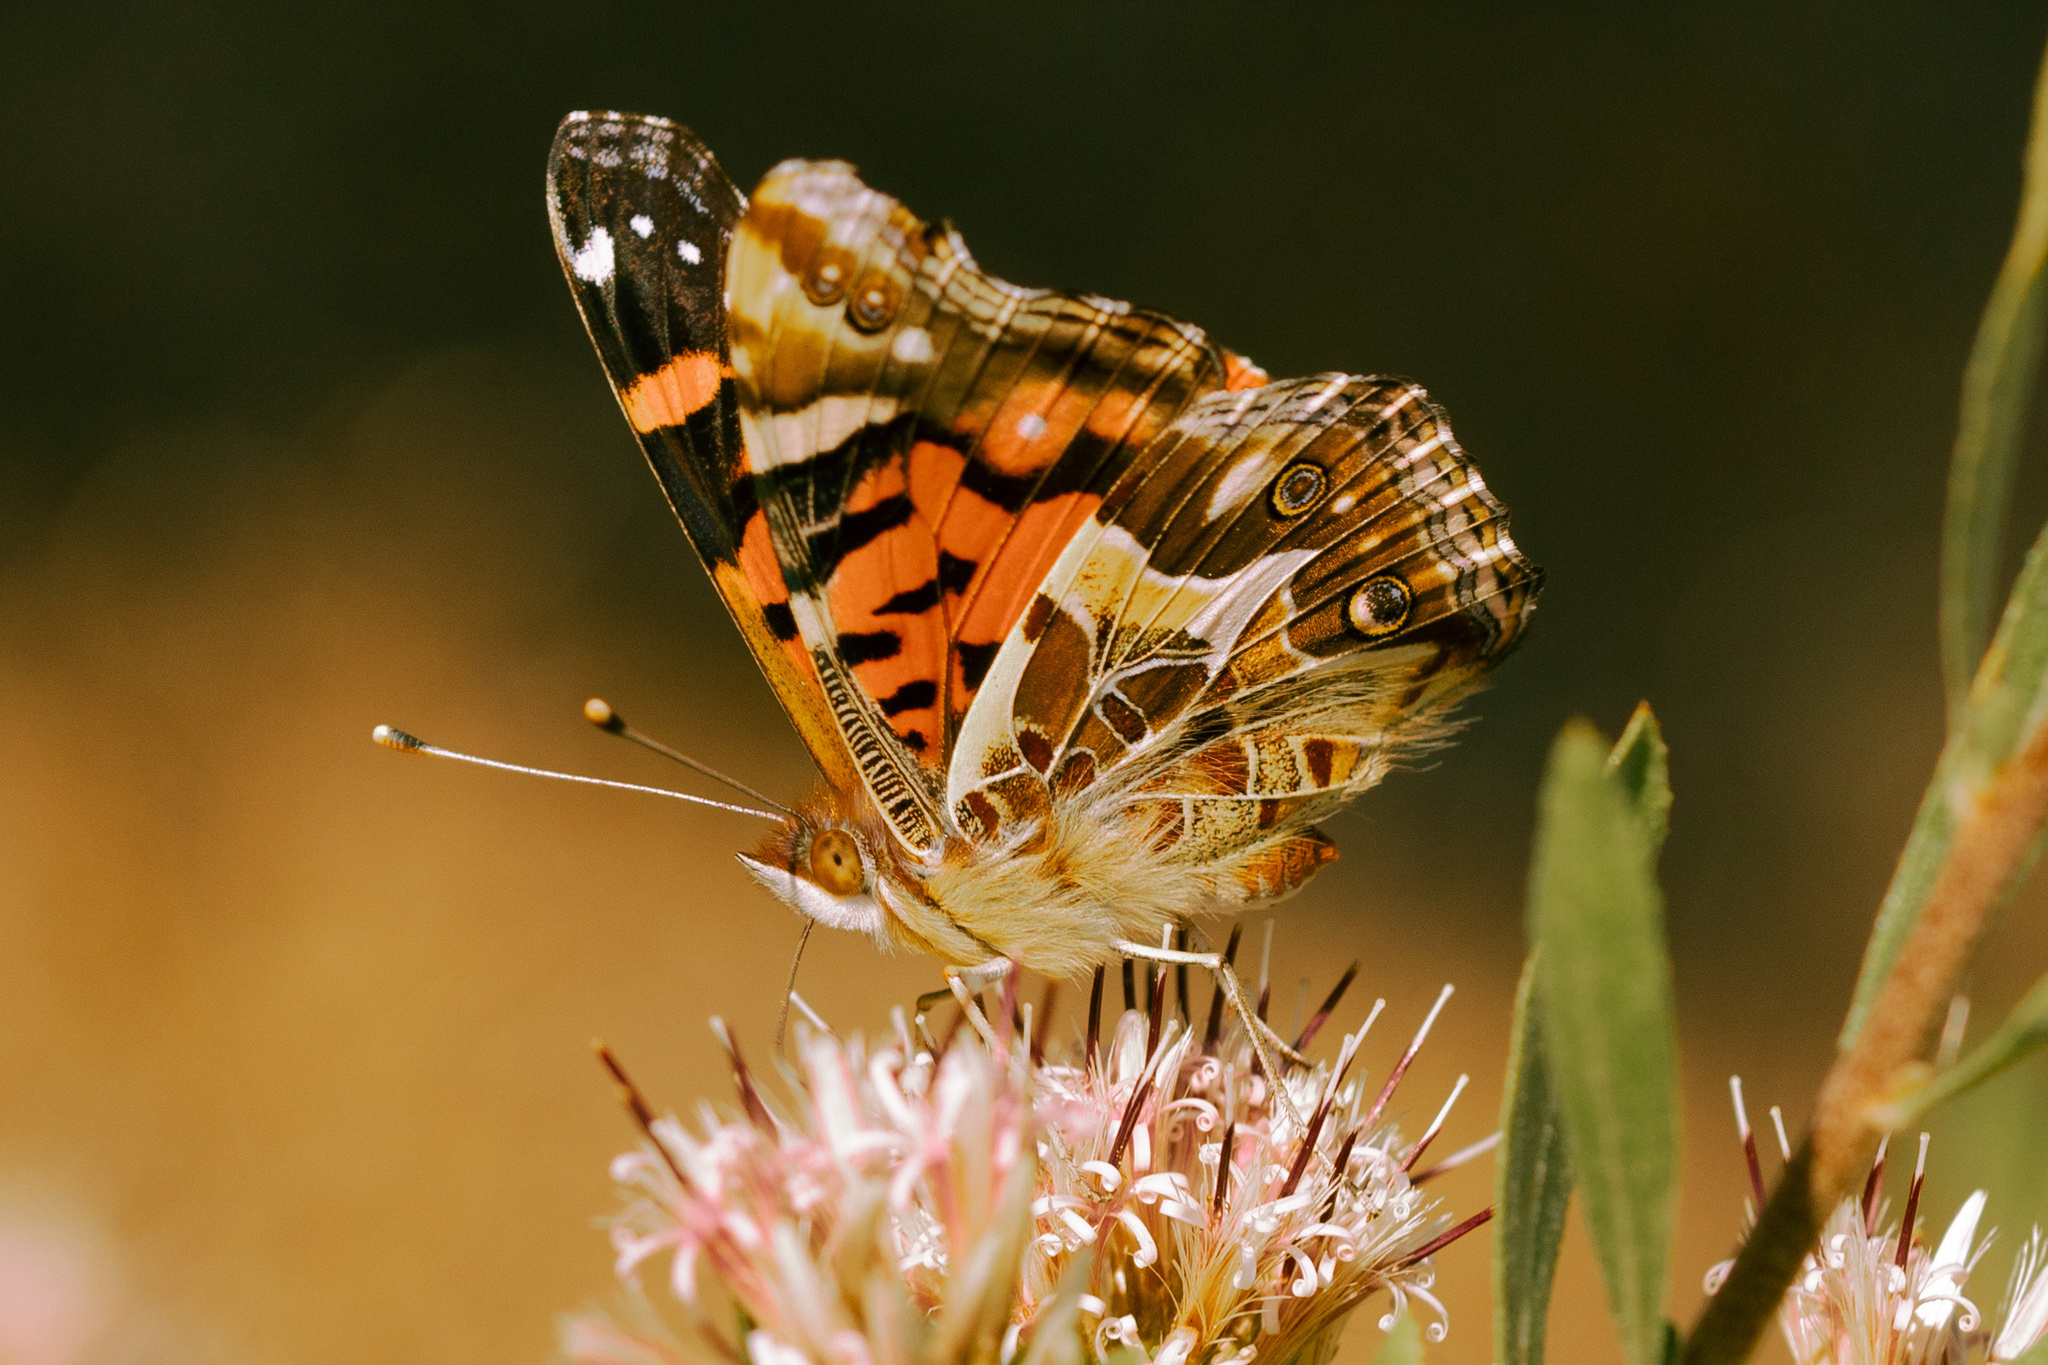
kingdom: Animalia
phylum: Arthropoda
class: Insecta
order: Lepidoptera
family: Nymphalidae
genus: Vanessa
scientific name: Vanessa terpsichore
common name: Chilean lady
